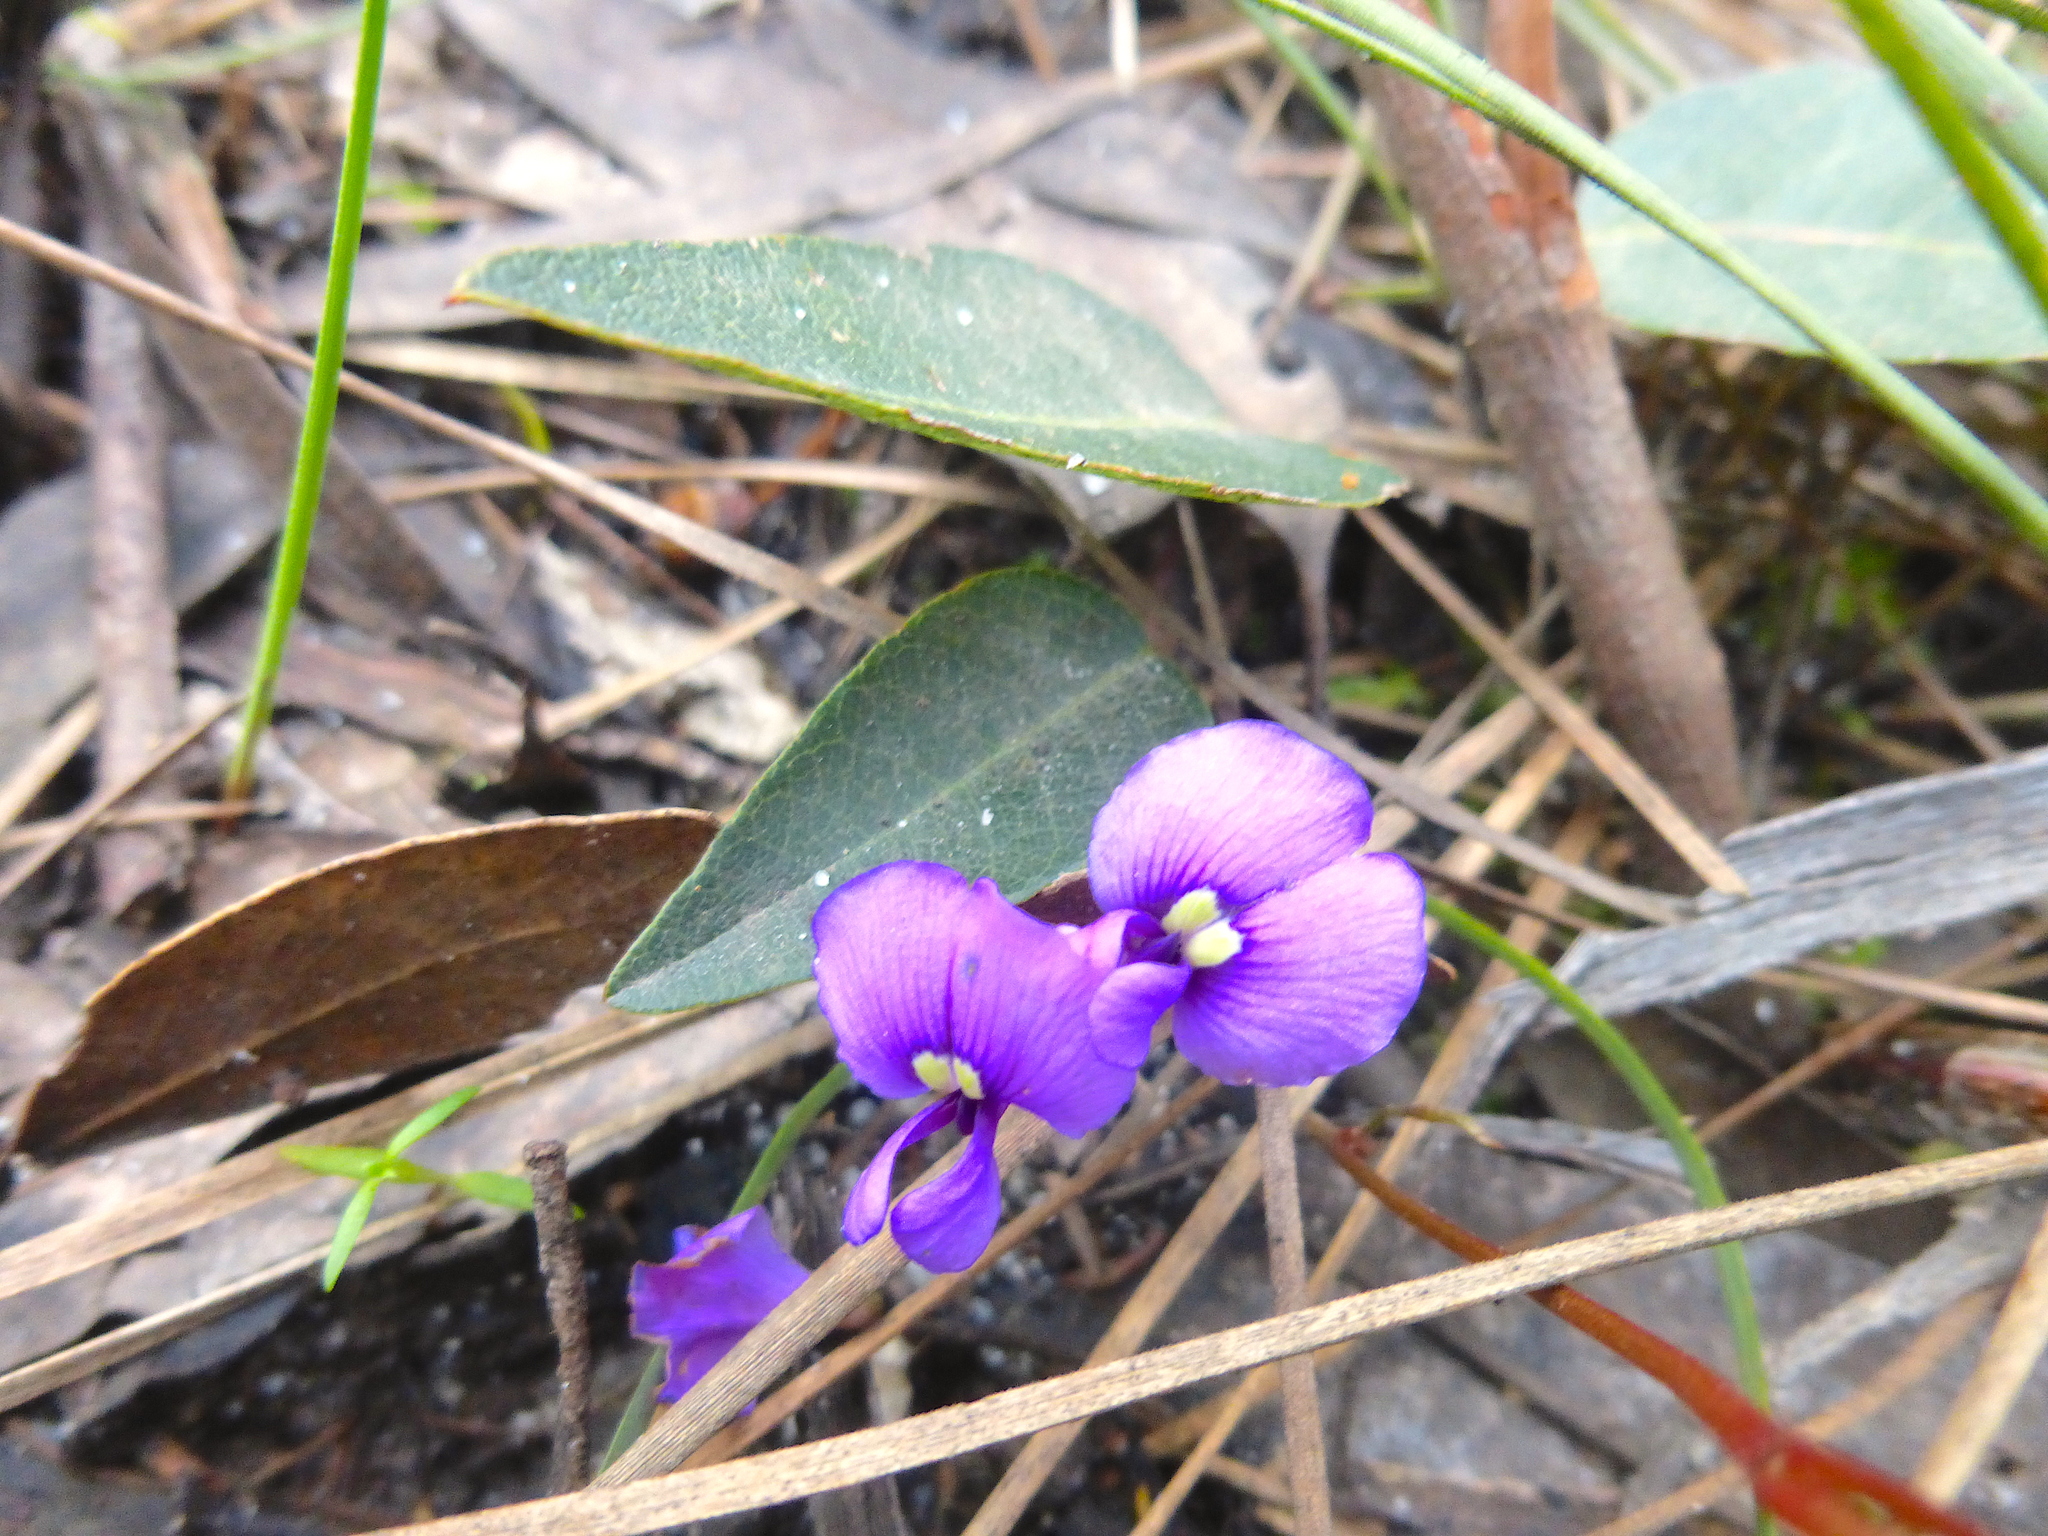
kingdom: Plantae
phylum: Tracheophyta
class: Magnoliopsida
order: Fabales
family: Fabaceae
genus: Hardenbergia
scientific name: Hardenbergia violacea
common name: Coral-pea
